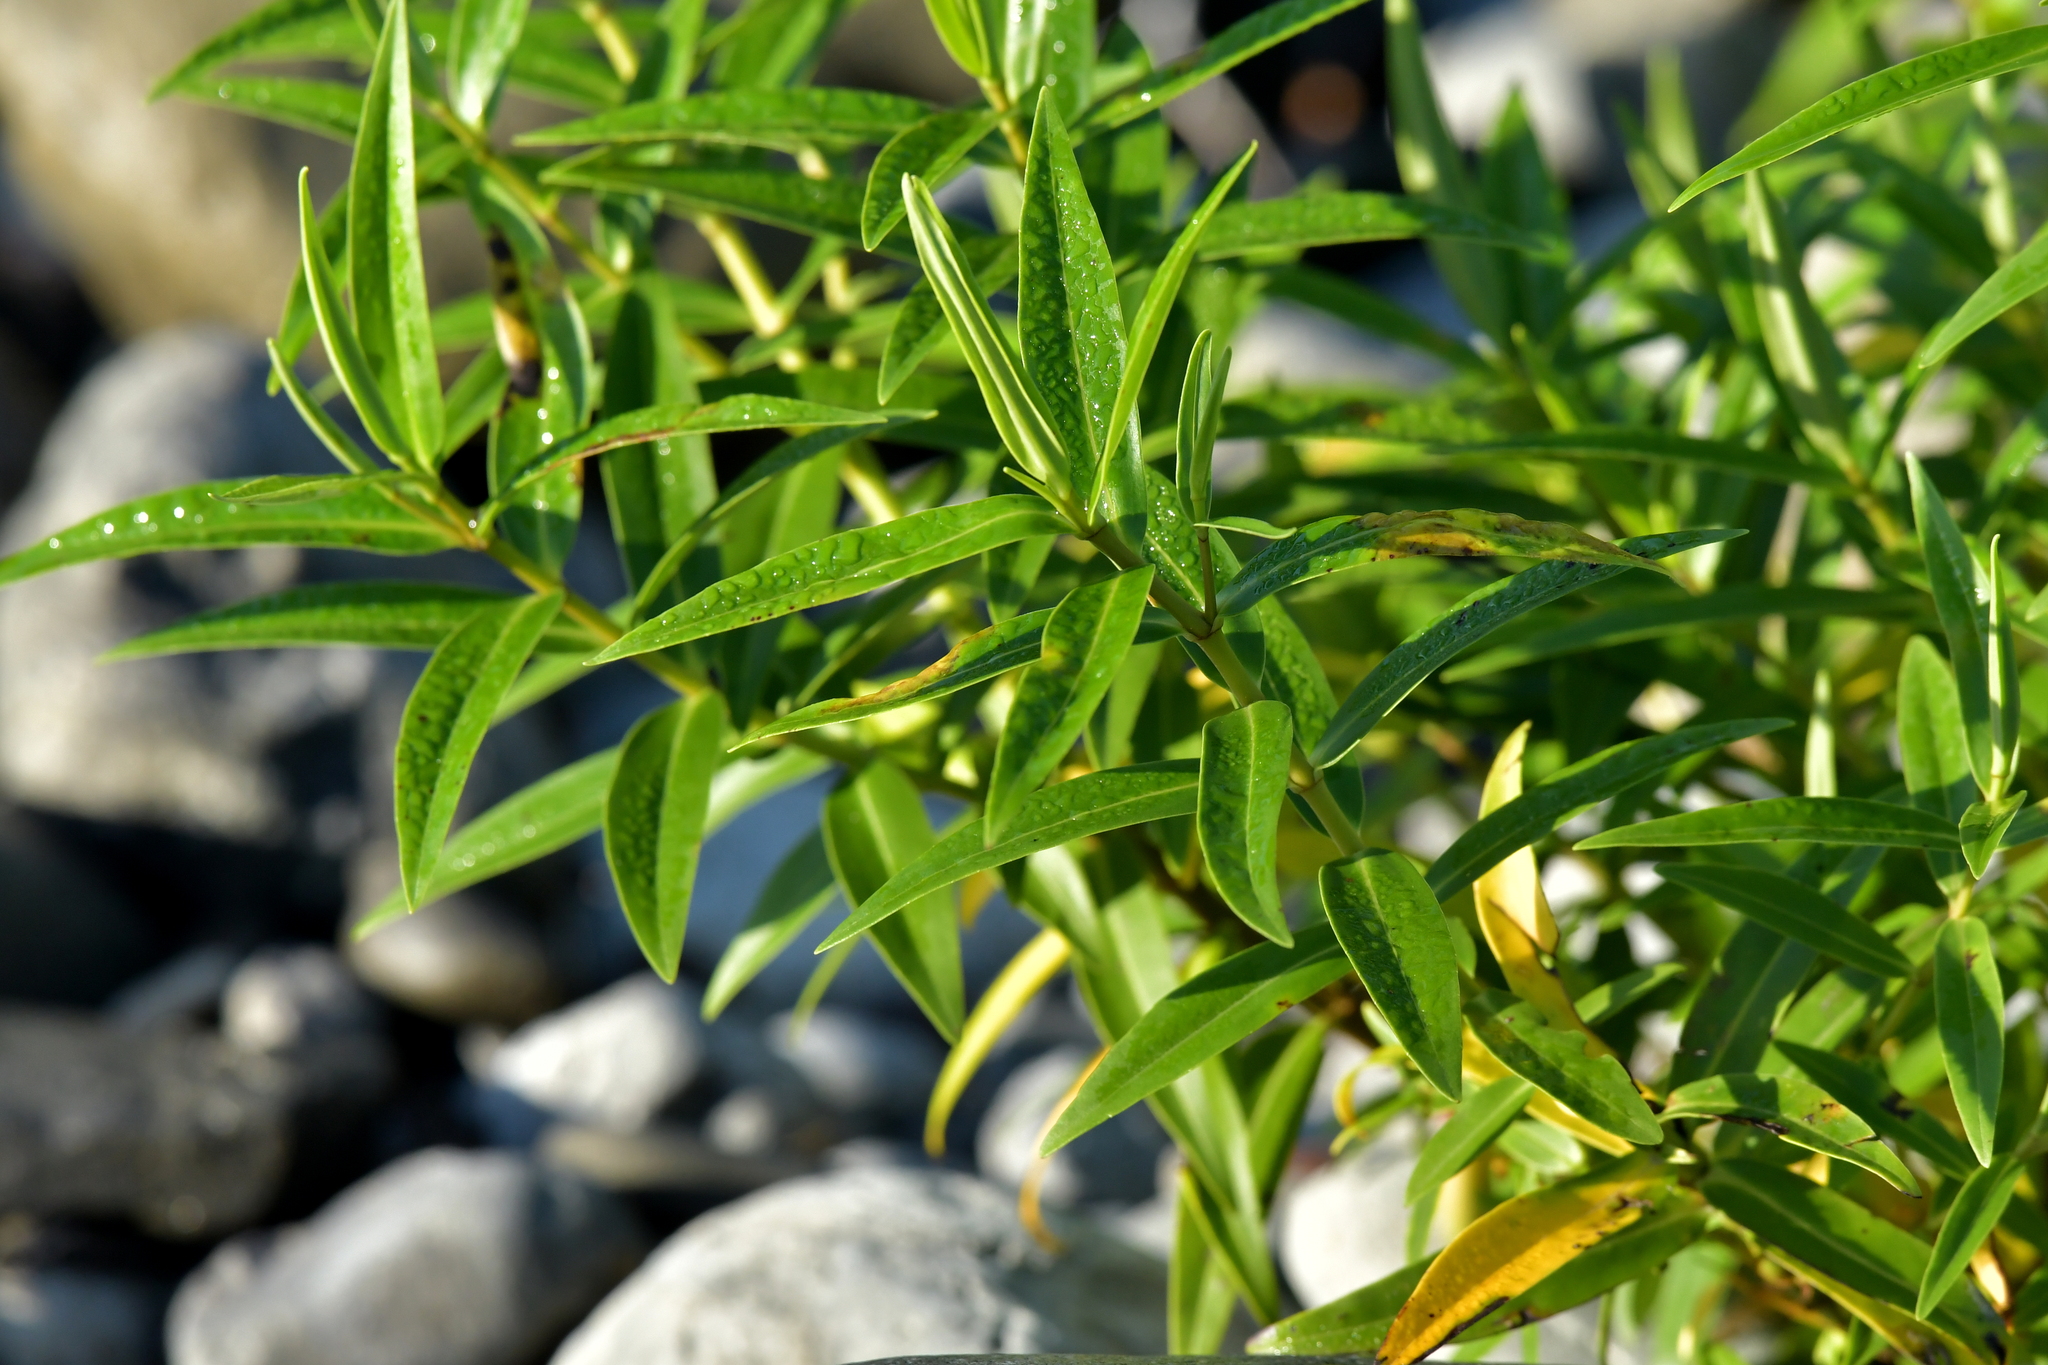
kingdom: Plantae
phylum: Tracheophyta
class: Magnoliopsida
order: Lamiales
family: Plantaginaceae
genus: Veronica
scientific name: Veronica stricta
